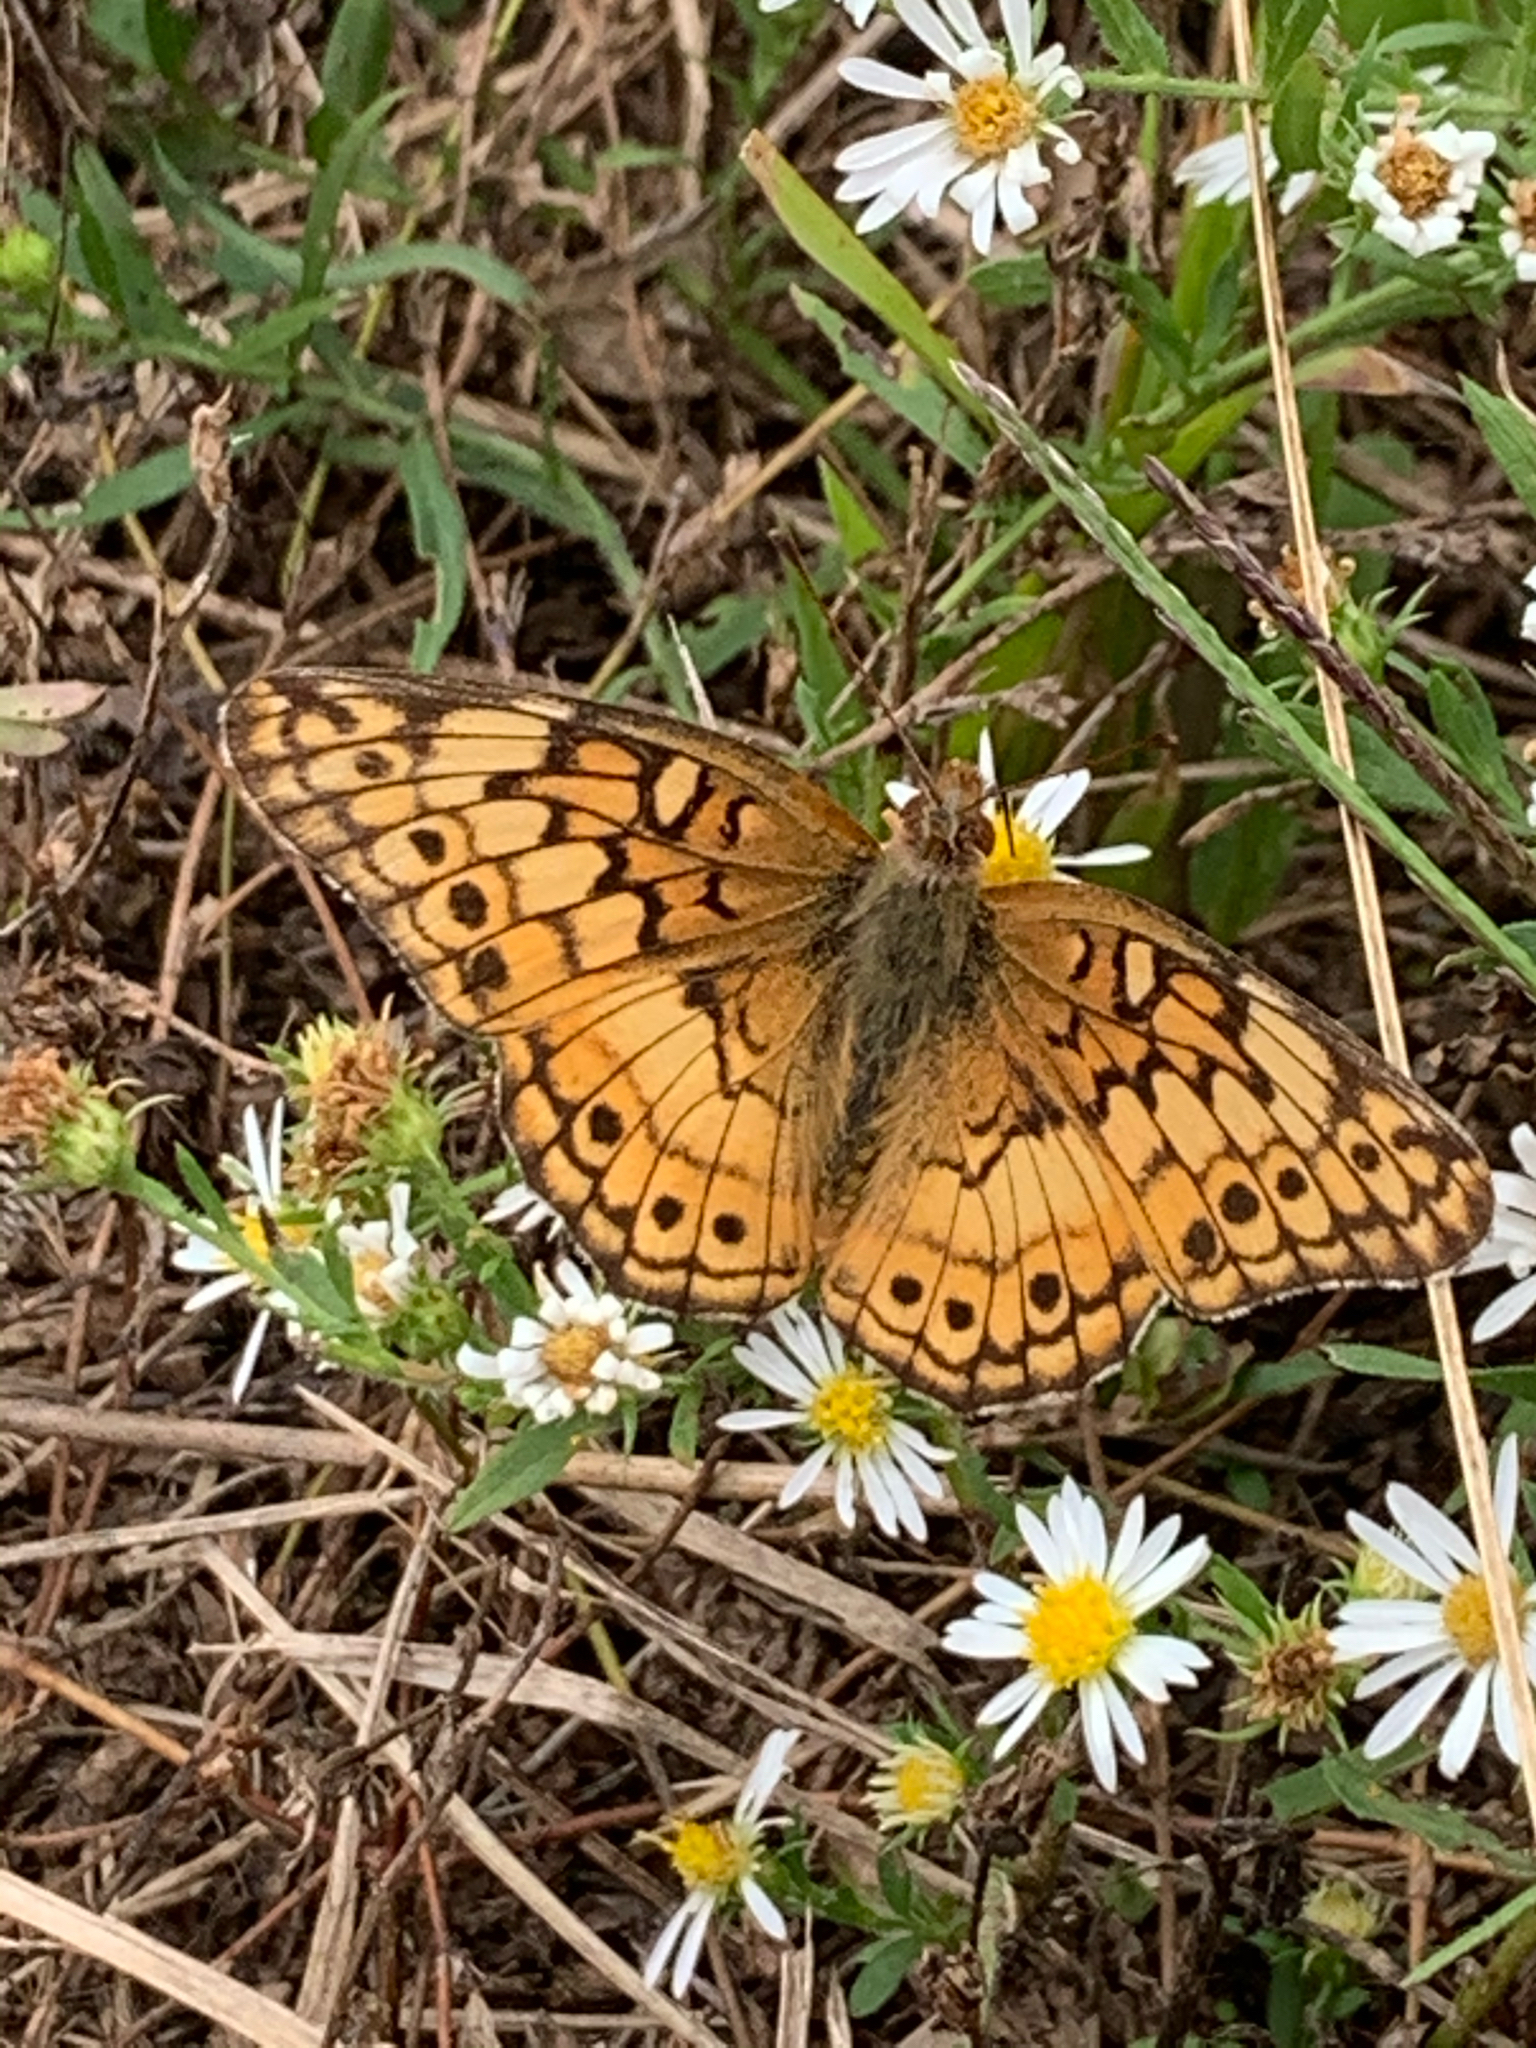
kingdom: Animalia
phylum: Arthropoda
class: Insecta
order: Lepidoptera
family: Nymphalidae
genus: Euptoieta
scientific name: Euptoieta claudia
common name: Variegated fritillary
